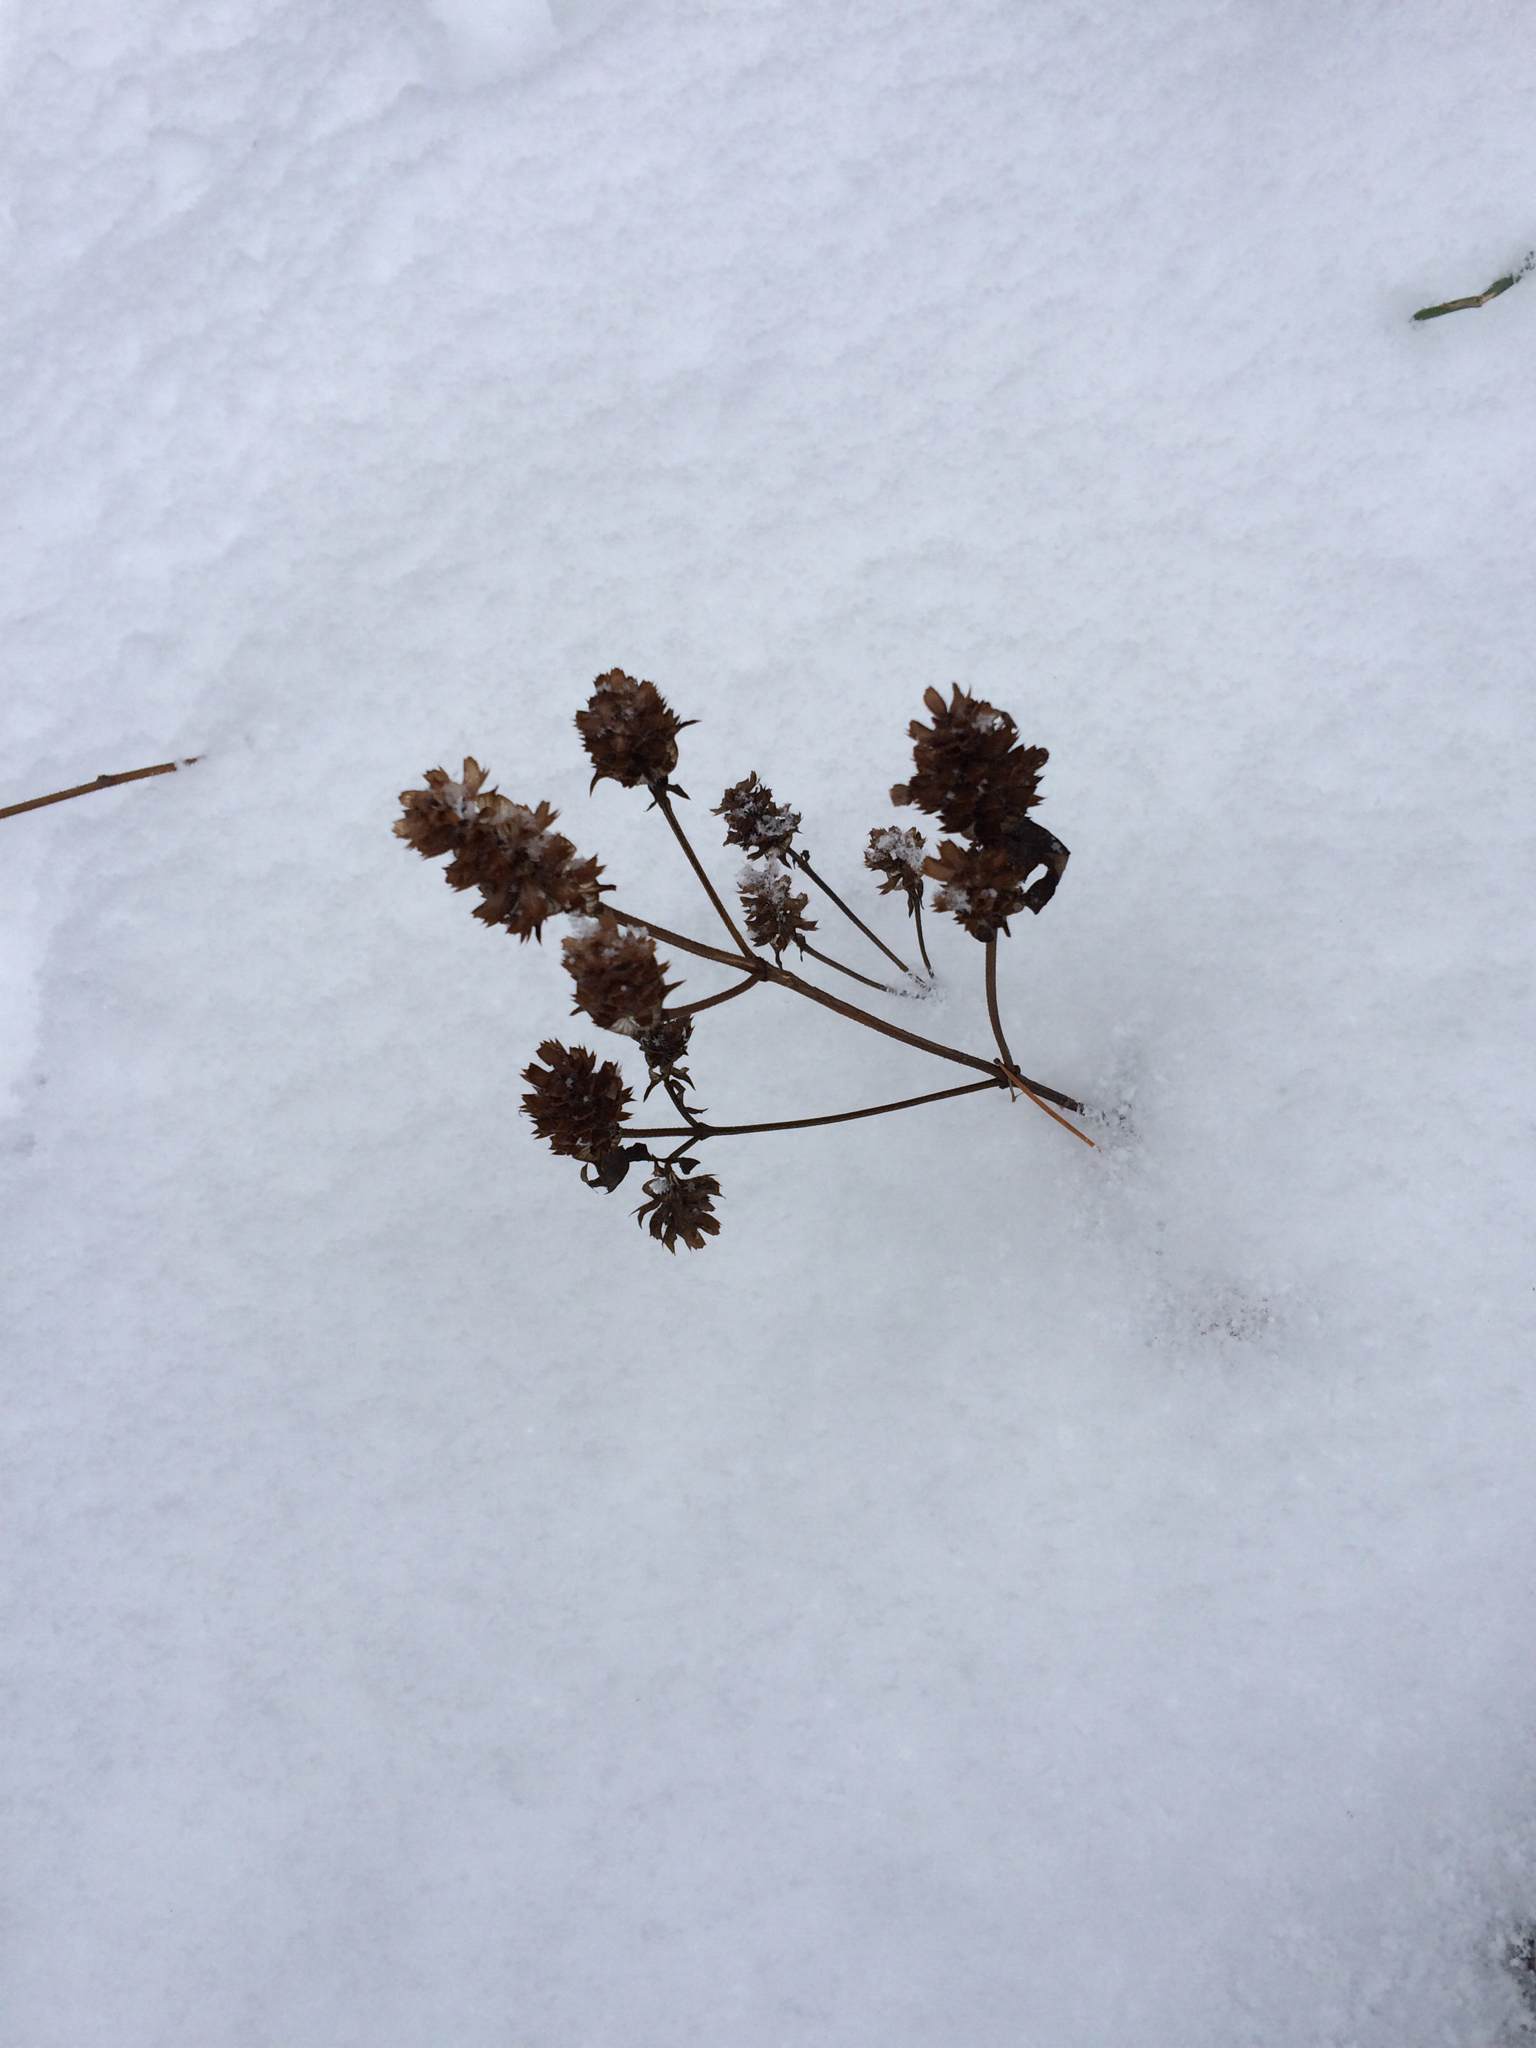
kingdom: Plantae
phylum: Tracheophyta
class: Magnoliopsida
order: Lamiales
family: Lamiaceae
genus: Prunella
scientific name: Prunella vulgaris
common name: Heal-all
